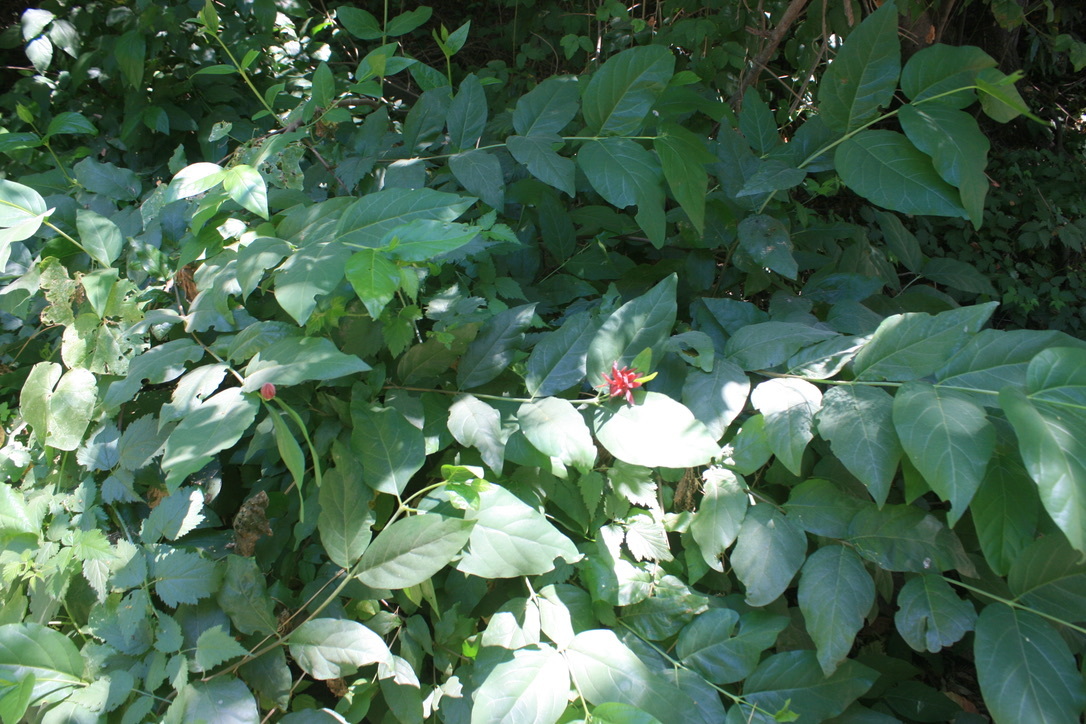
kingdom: Plantae
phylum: Tracheophyta
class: Magnoliopsida
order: Laurales
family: Calycanthaceae
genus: Calycanthus
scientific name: Calycanthus occidentalis
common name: California spicebush
